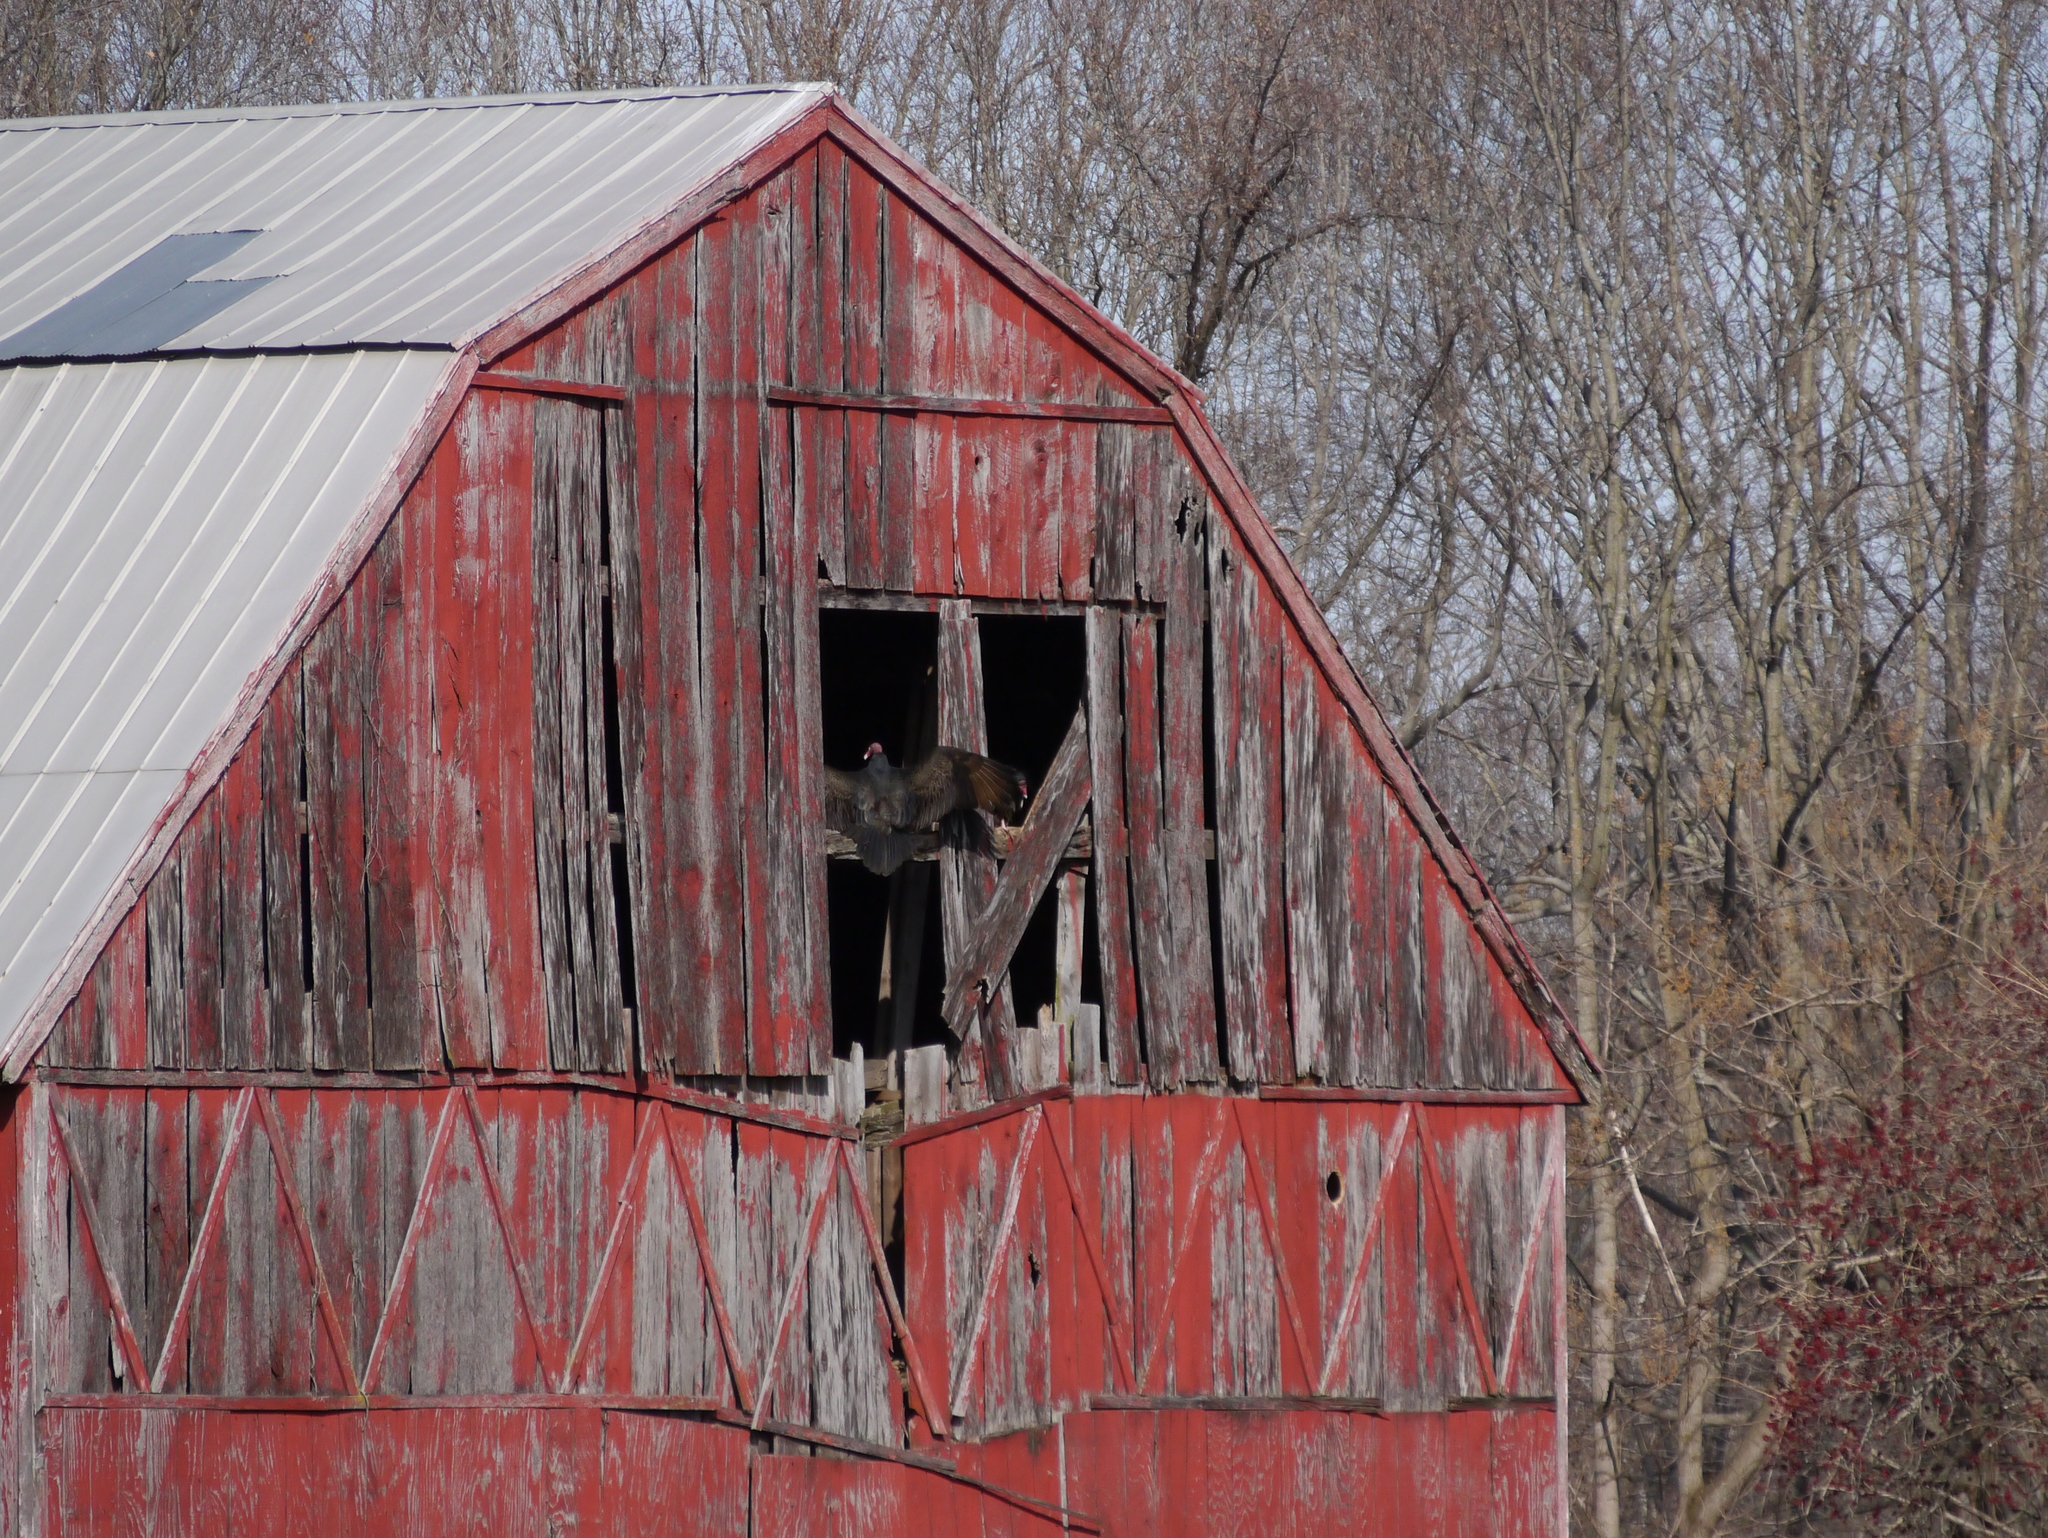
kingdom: Animalia
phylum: Chordata
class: Aves
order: Accipitriformes
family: Cathartidae
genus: Cathartes
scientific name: Cathartes aura
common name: Turkey vulture
